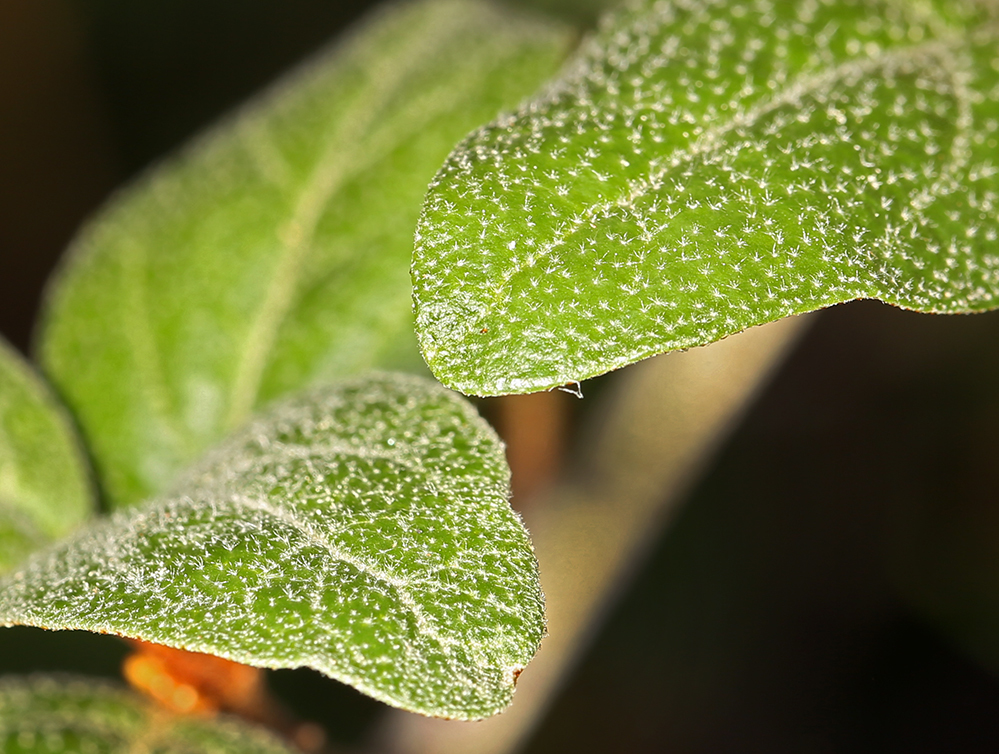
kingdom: Plantae
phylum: Tracheophyta
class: Magnoliopsida
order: Rosales
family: Elaeagnaceae
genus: Shepherdia
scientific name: Shepherdia canadensis
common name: Soapberry
